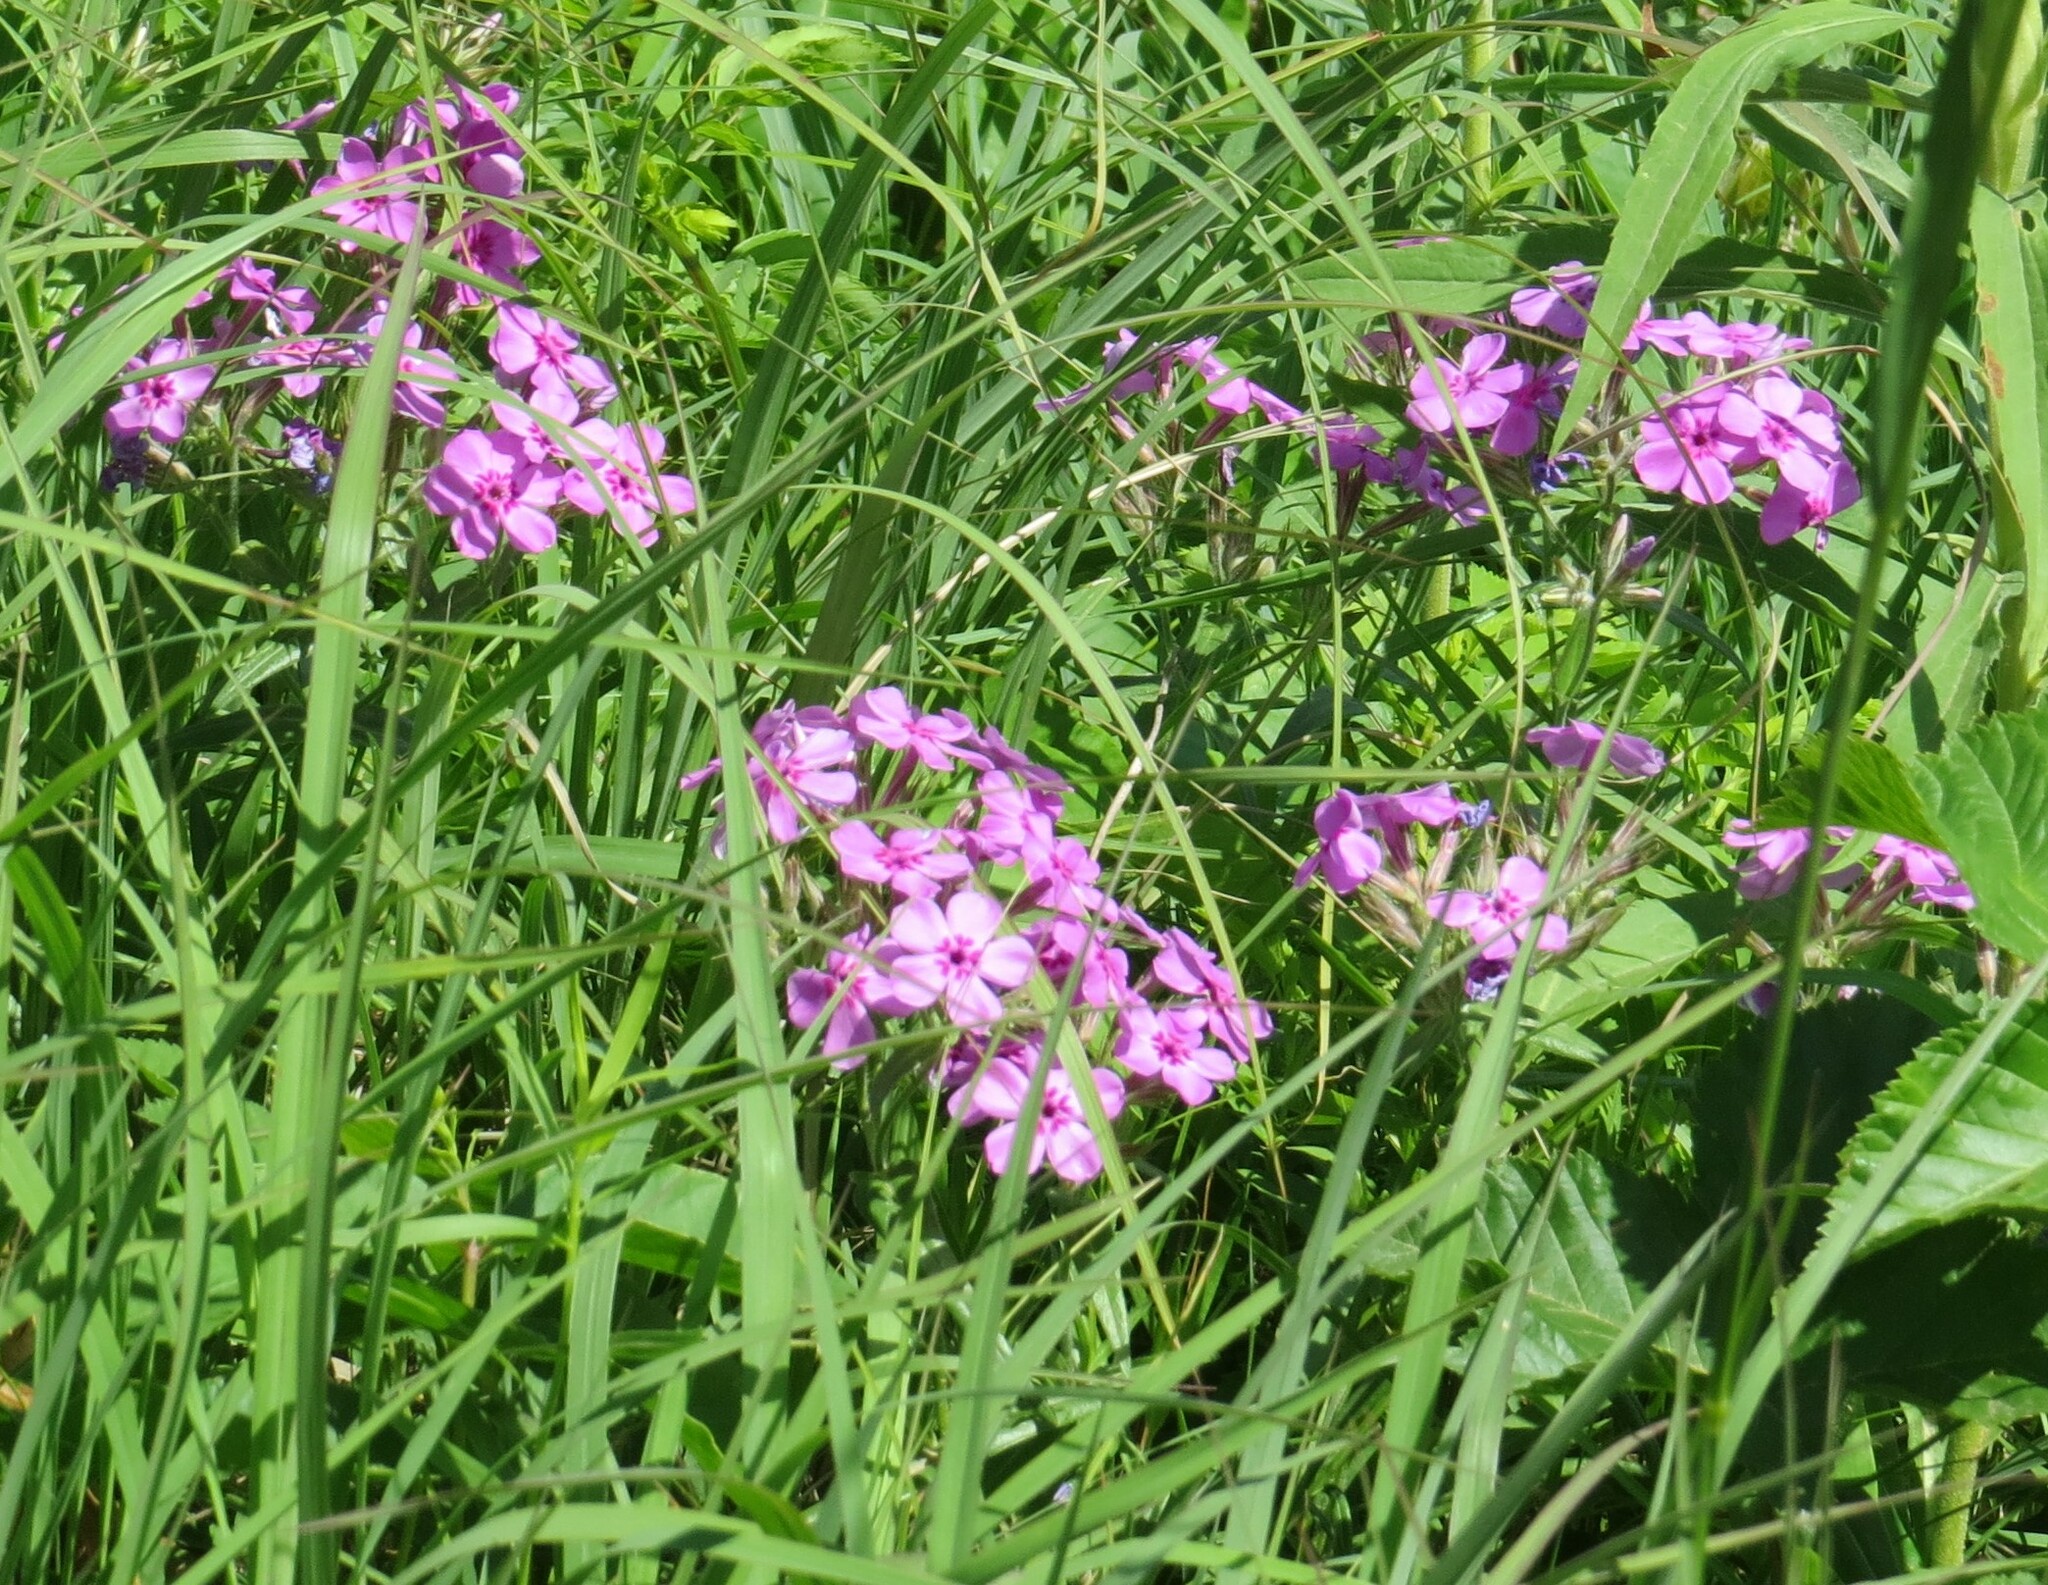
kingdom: Plantae
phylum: Tracheophyta
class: Magnoliopsida
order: Ericales
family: Polemoniaceae
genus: Phlox
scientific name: Phlox pilosa
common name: Prairie phlox
